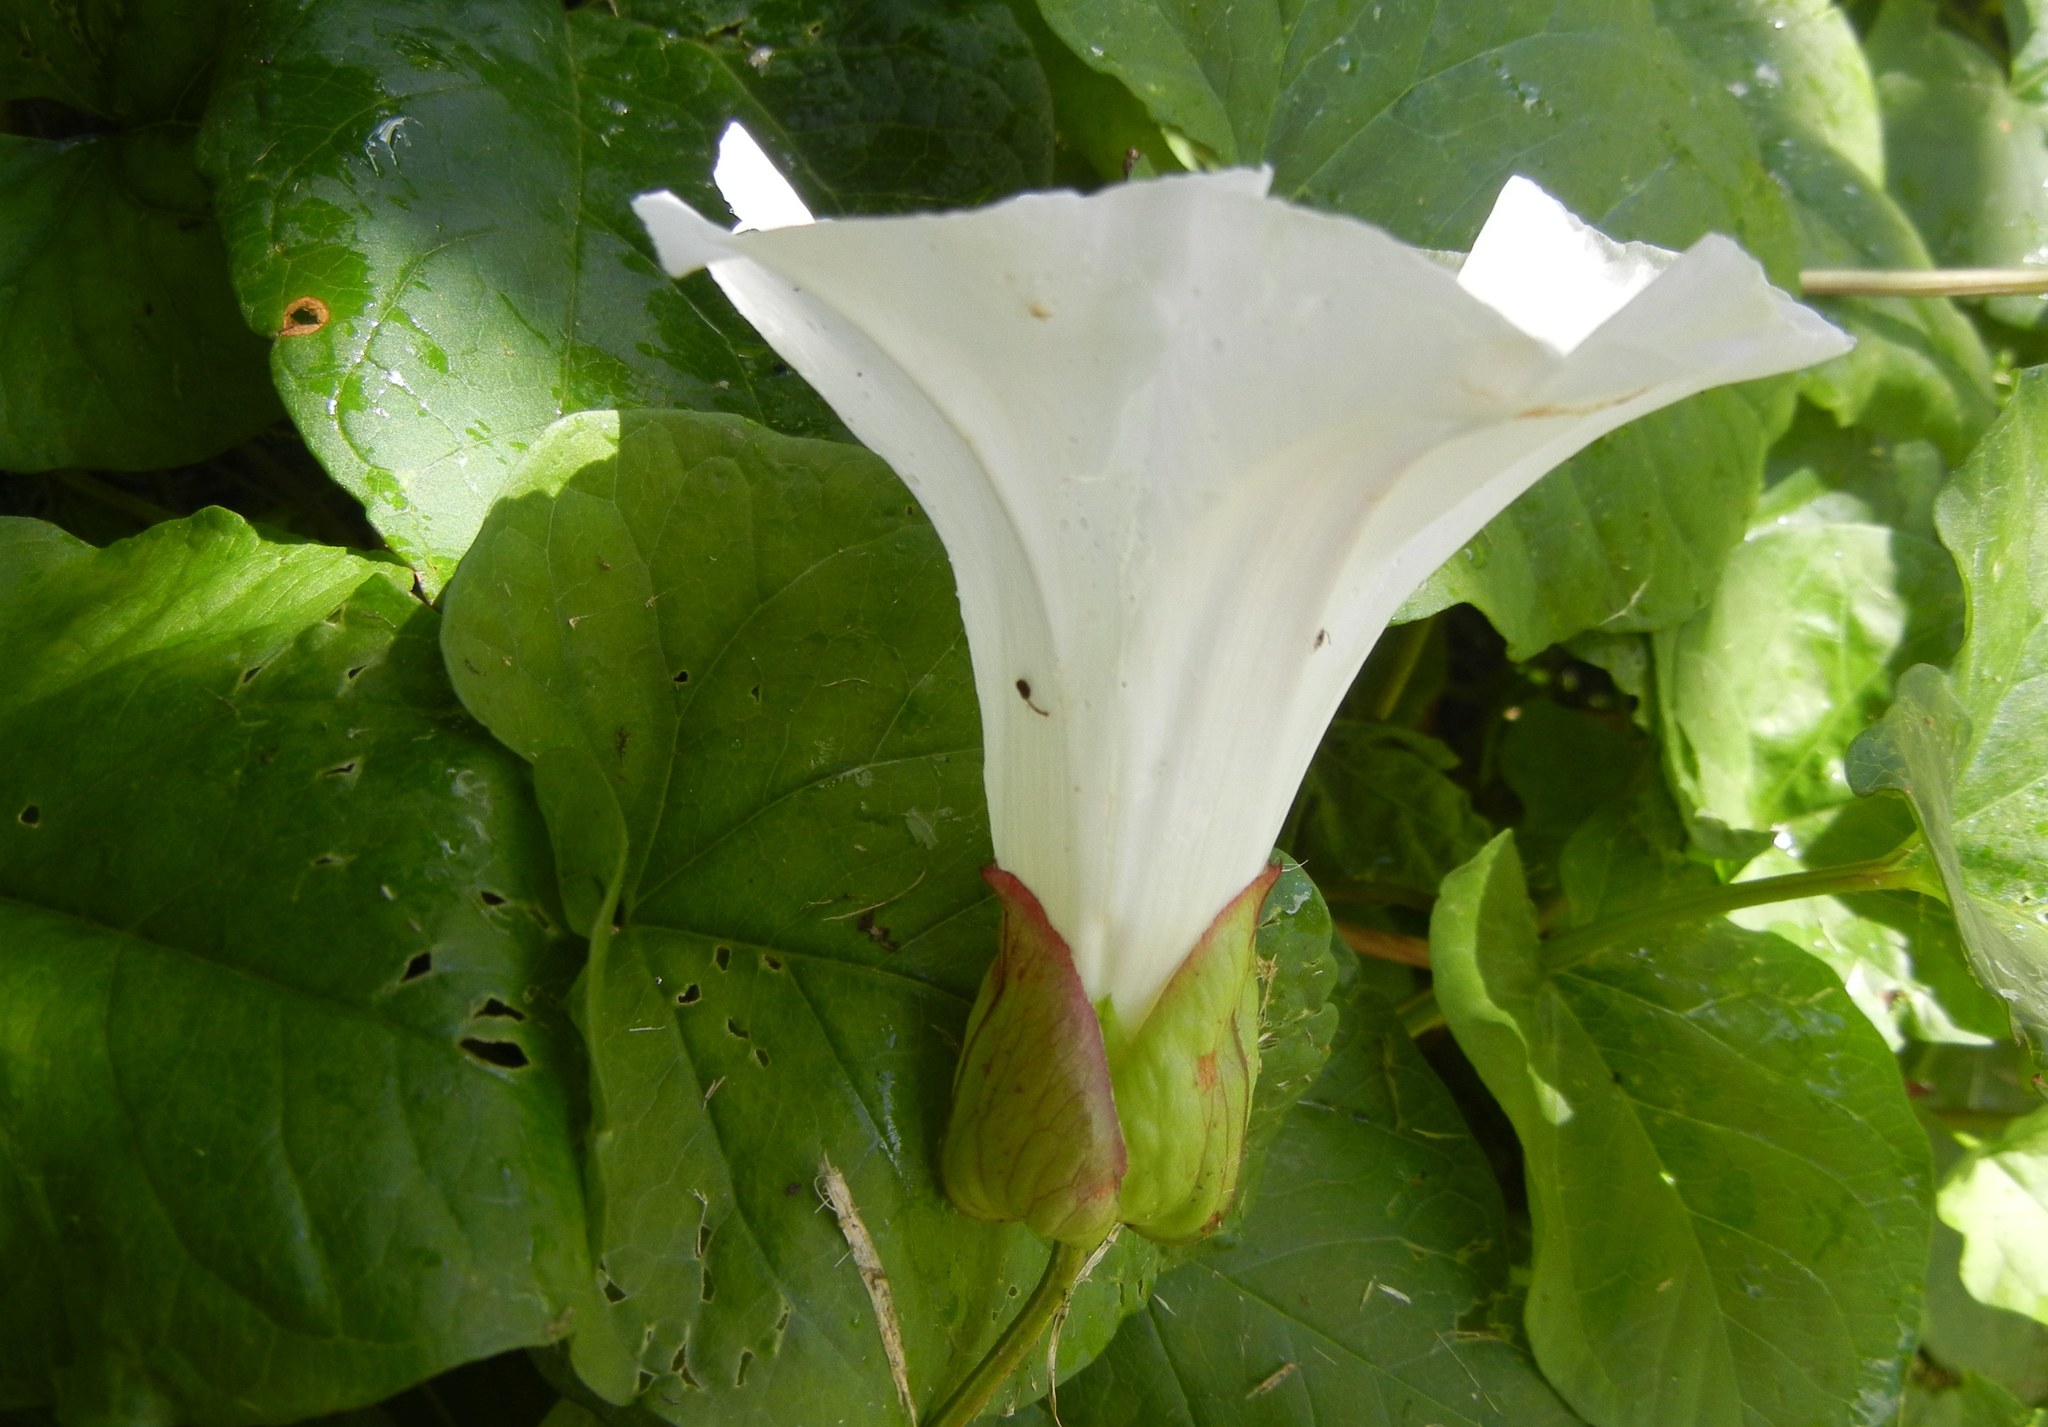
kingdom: Plantae
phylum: Tracheophyta
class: Magnoliopsida
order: Solanales
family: Convolvulaceae
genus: Calystegia
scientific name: Calystegia silvatica
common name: Large bindweed
